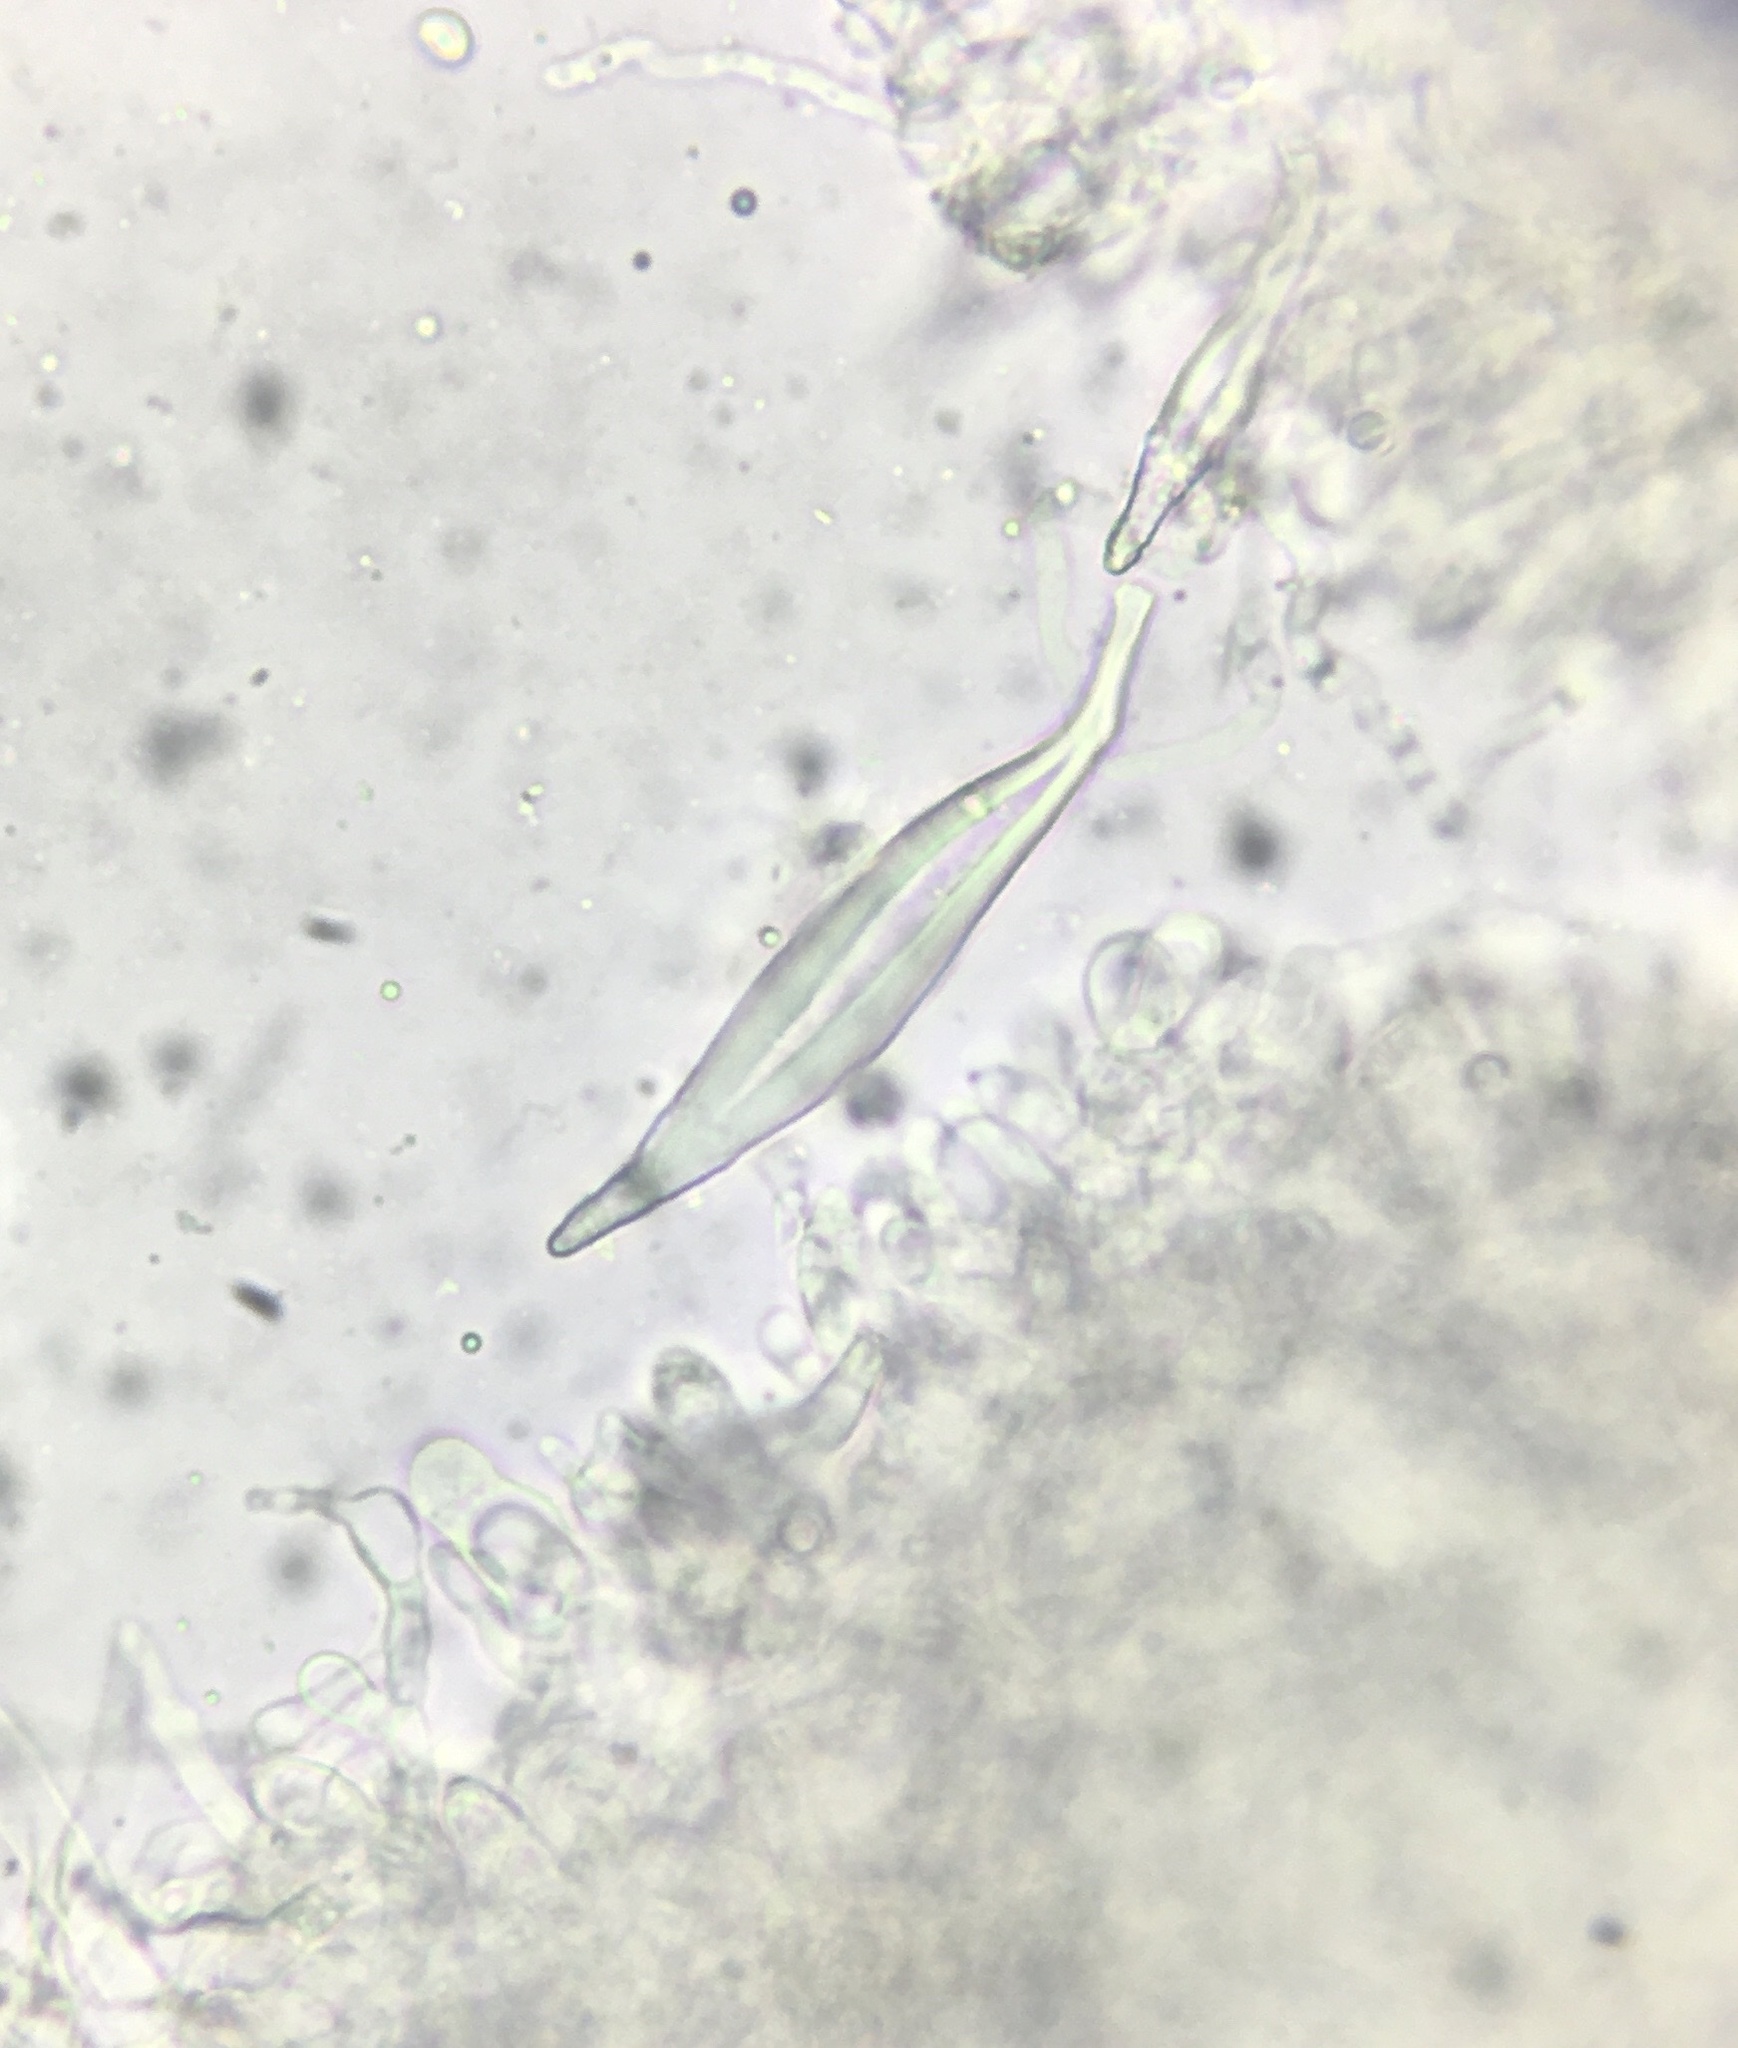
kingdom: Fungi
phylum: Basidiomycota
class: Agaricomycetes
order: Agaricales
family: Pleurotaceae
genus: Hohenbuehelia
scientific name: Hohenbuehelia petaloides
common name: Shoehorn oyster
